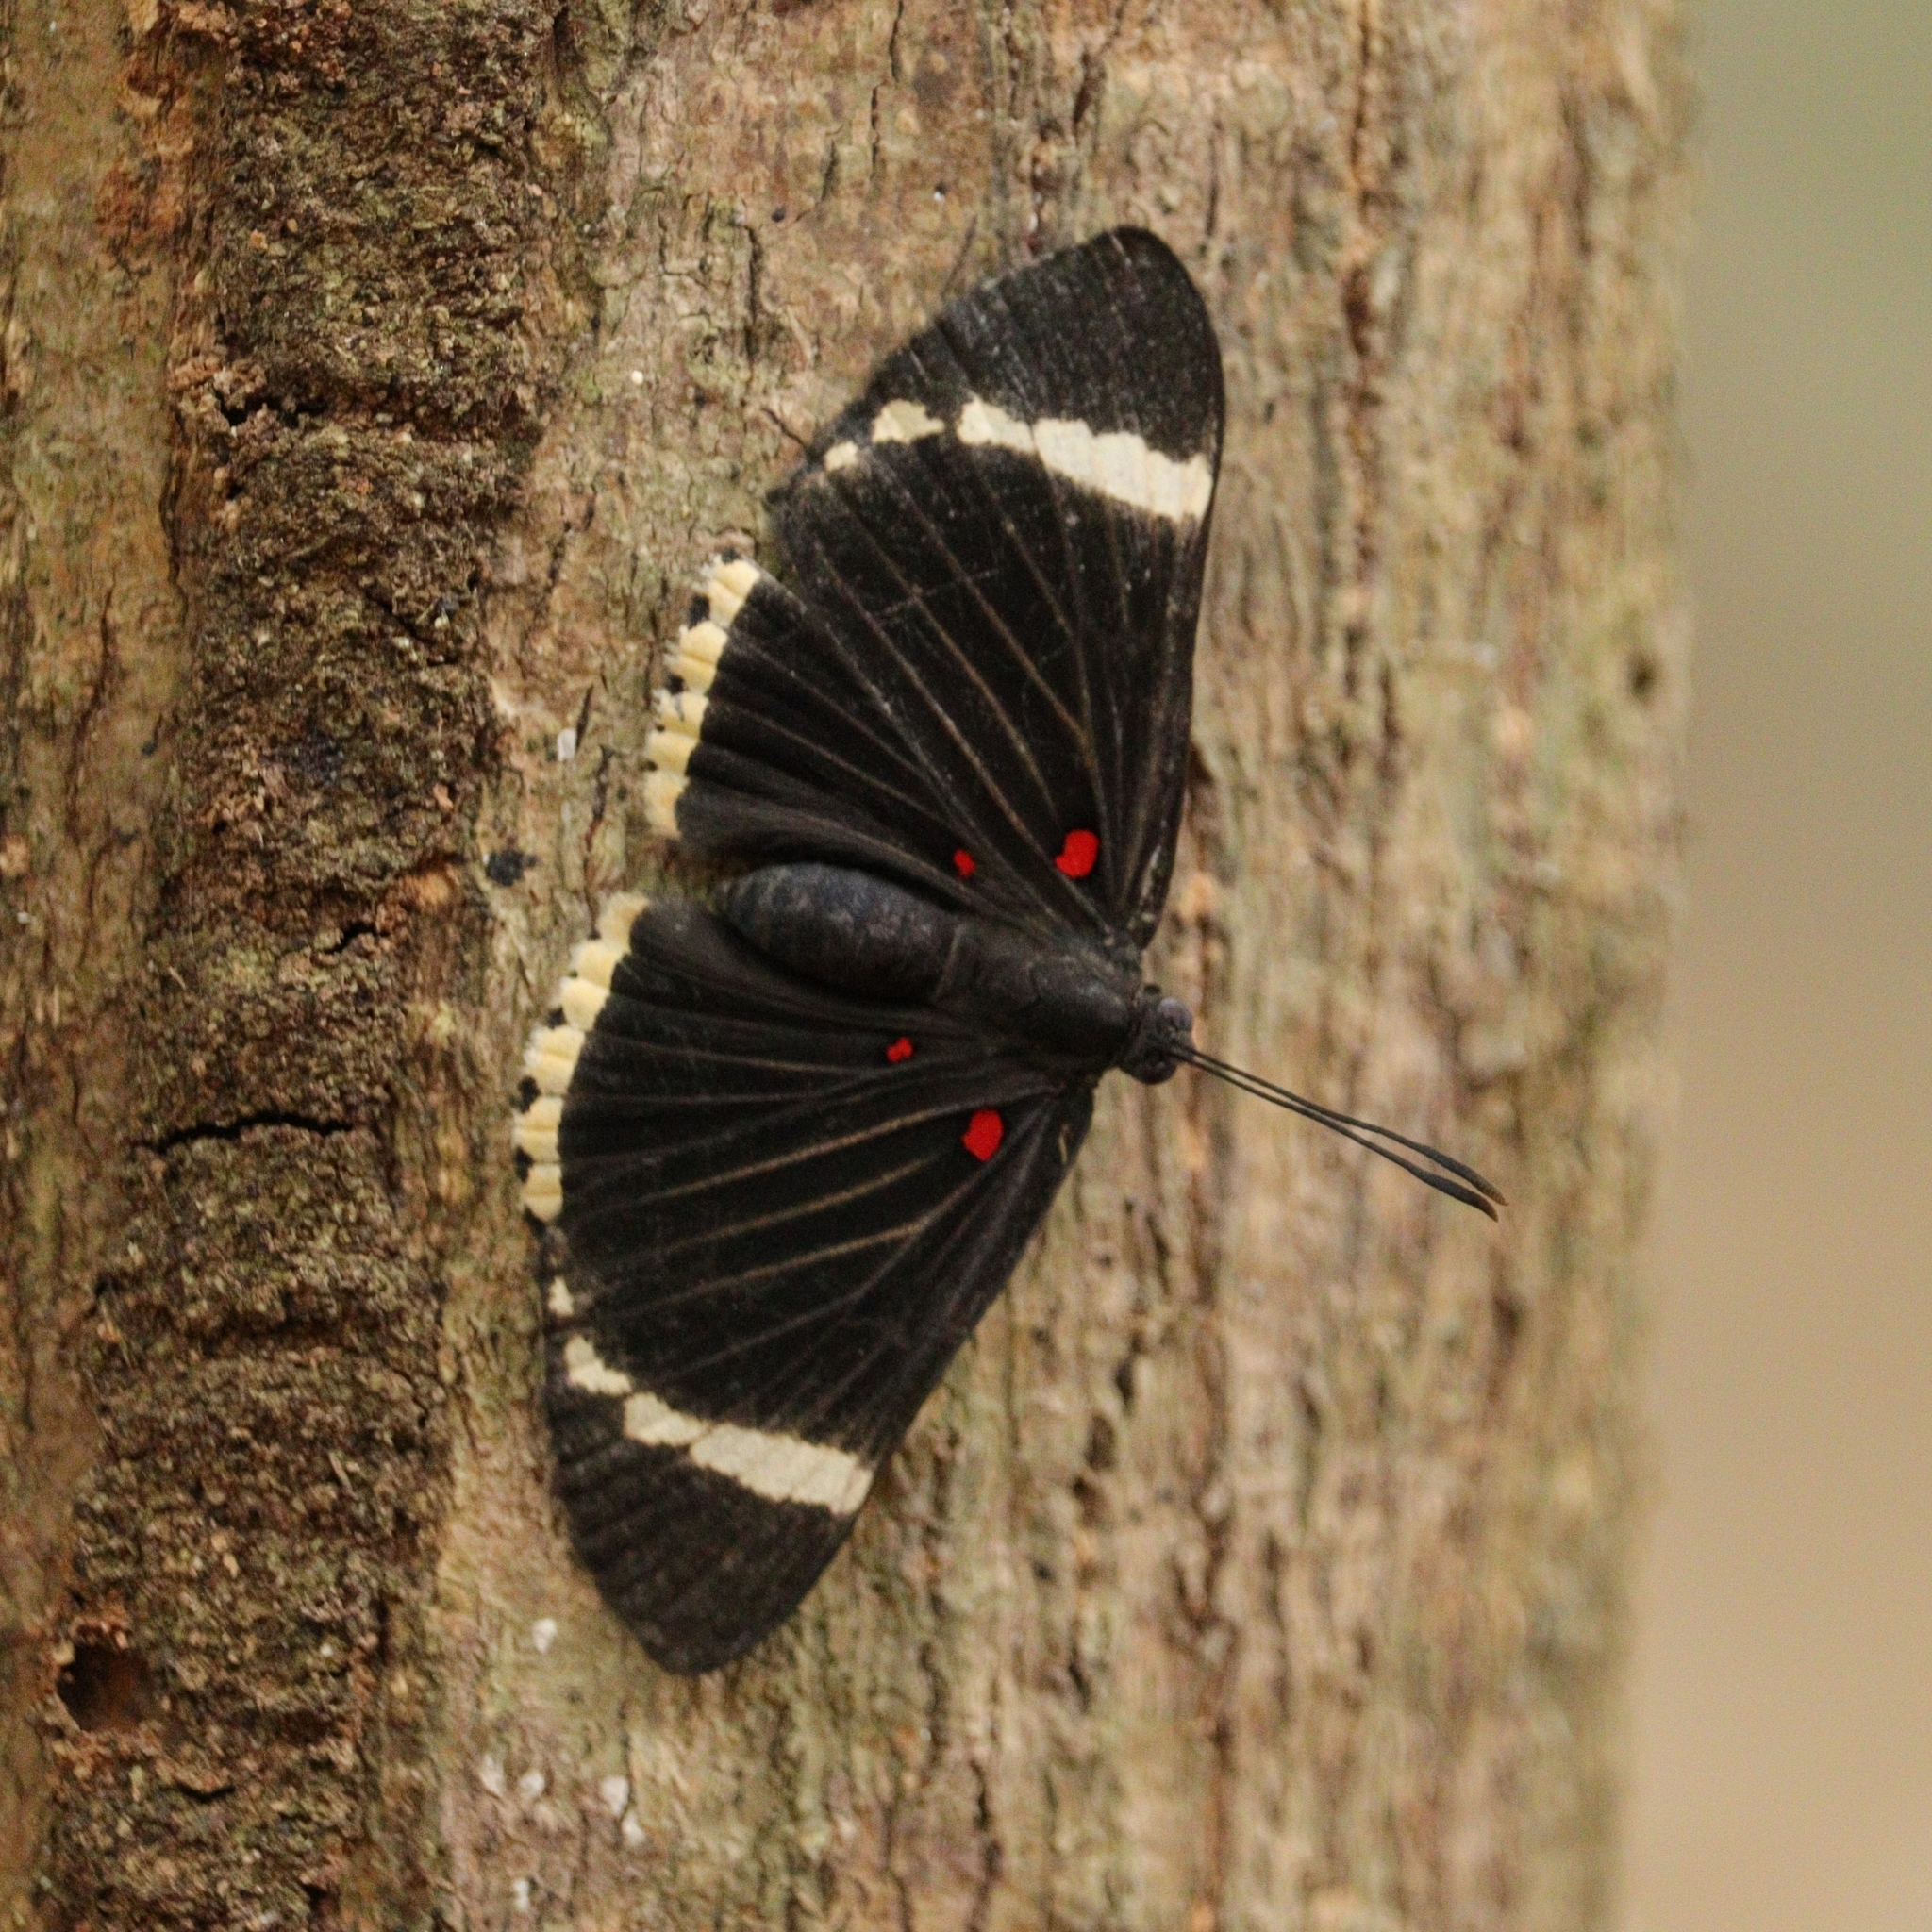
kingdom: Animalia
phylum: Arthropoda
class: Insecta
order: Lepidoptera
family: Lycaenidae
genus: Melanis
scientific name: Melanis xenia
